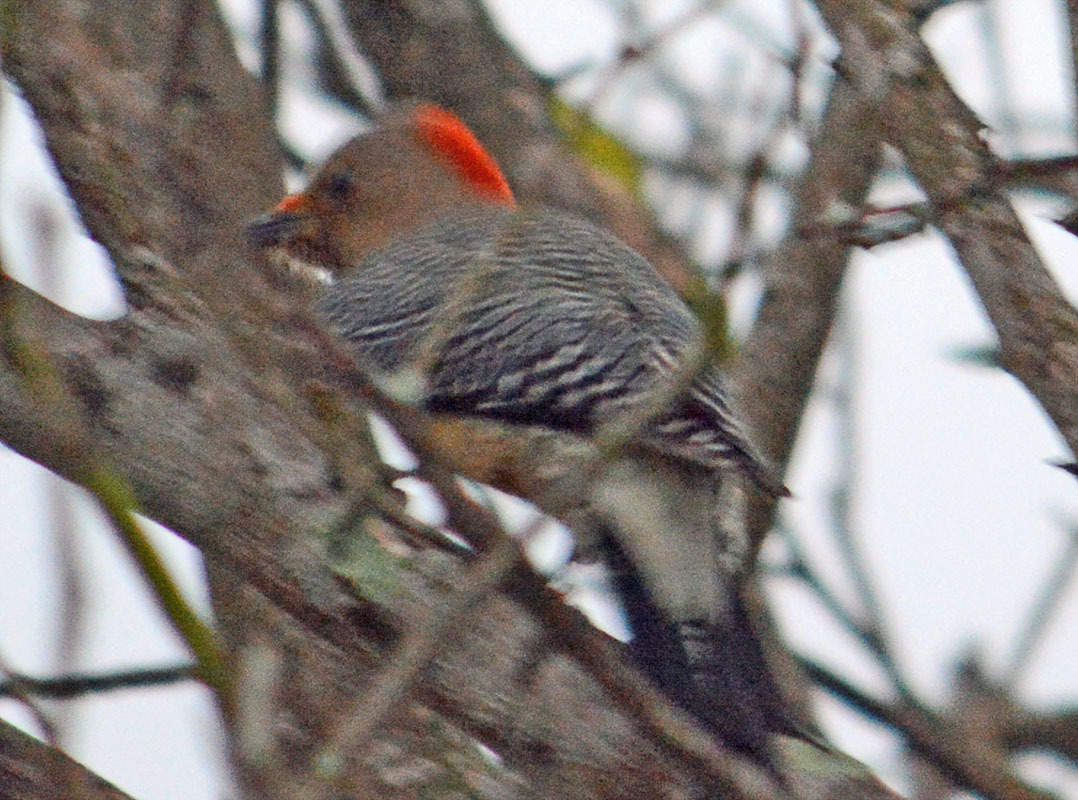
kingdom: Animalia
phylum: Chordata
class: Aves
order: Piciformes
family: Picidae
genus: Melanerpes
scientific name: Melanerpes aurifrons
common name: Golden-fronted woodpecker
